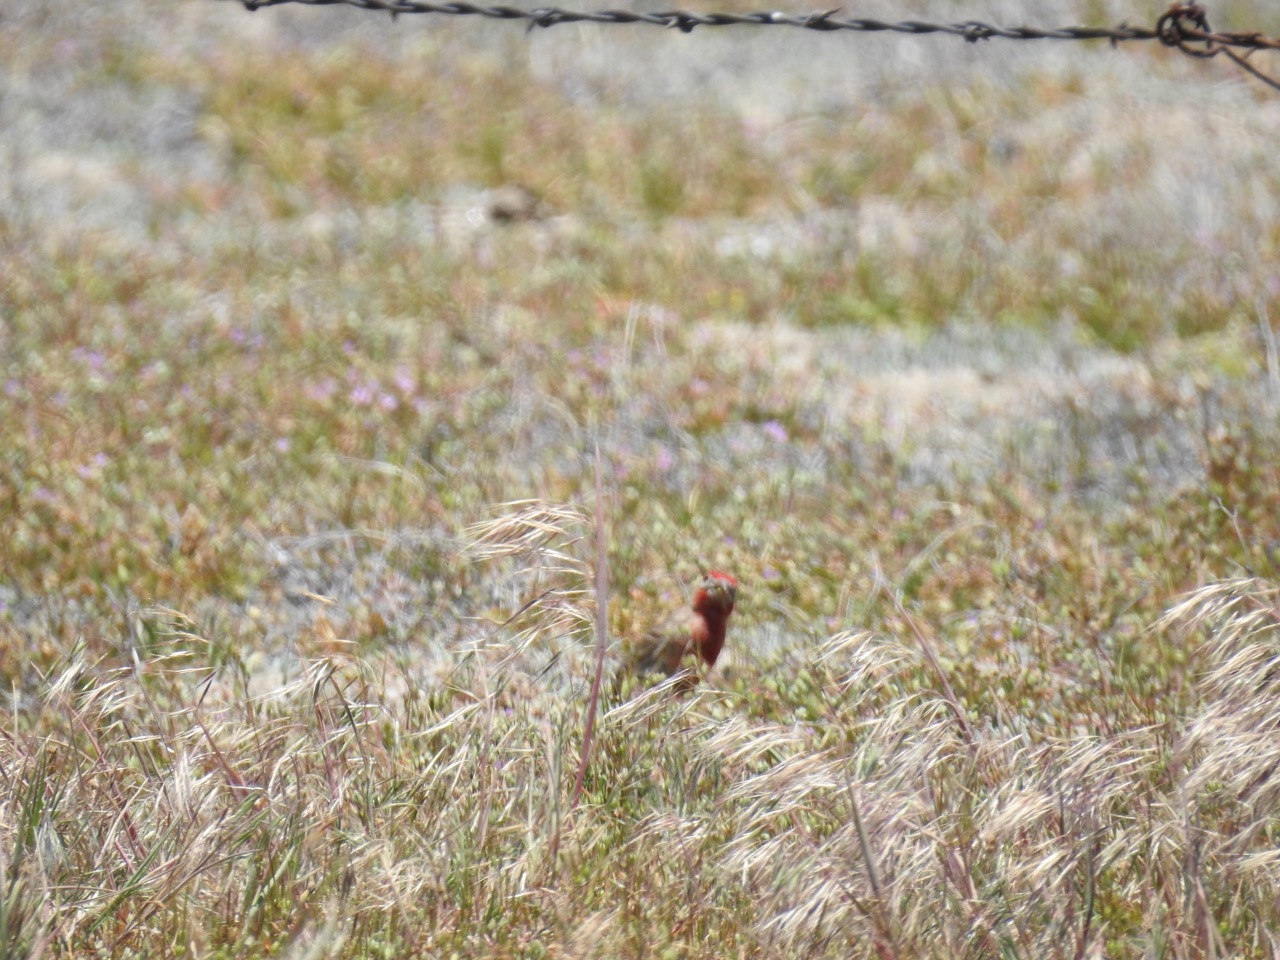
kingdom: Animalia
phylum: Chordata
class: Aves
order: Passeriformes
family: Fringillidae
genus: Haemorhous
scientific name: Haemorhous mexicanus
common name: House finch
